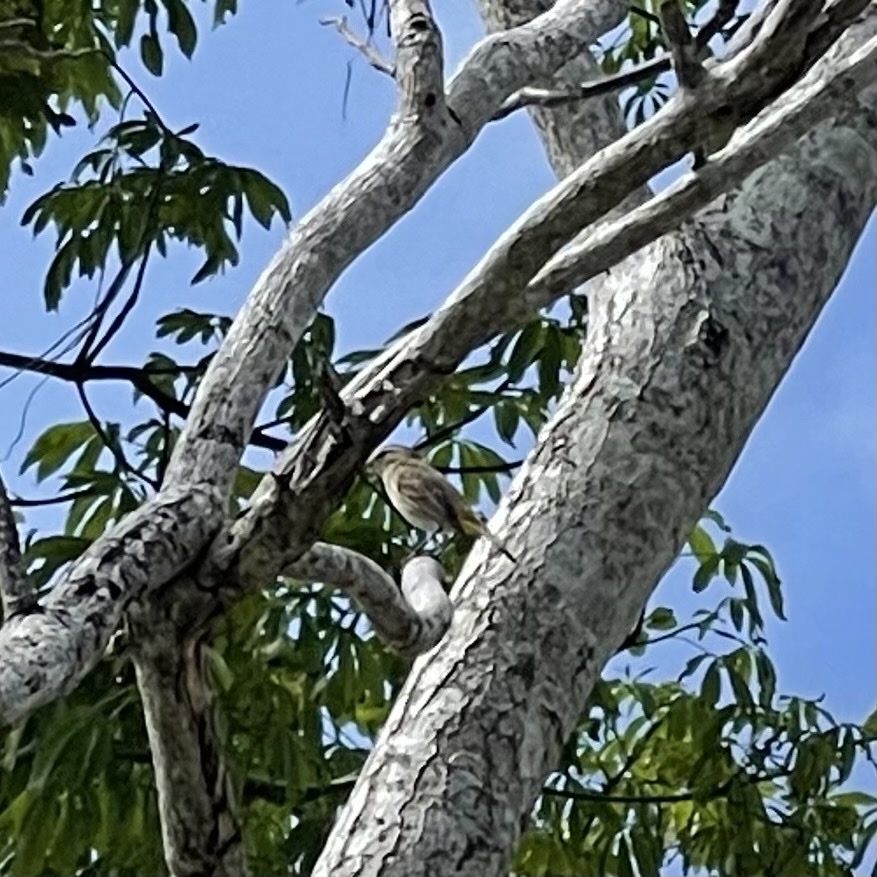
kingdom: Animalia
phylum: Chordata
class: Aves
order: Passeriformes
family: Parulidae
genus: Setophaga
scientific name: Setophaga palmarum
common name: Palm warbler
